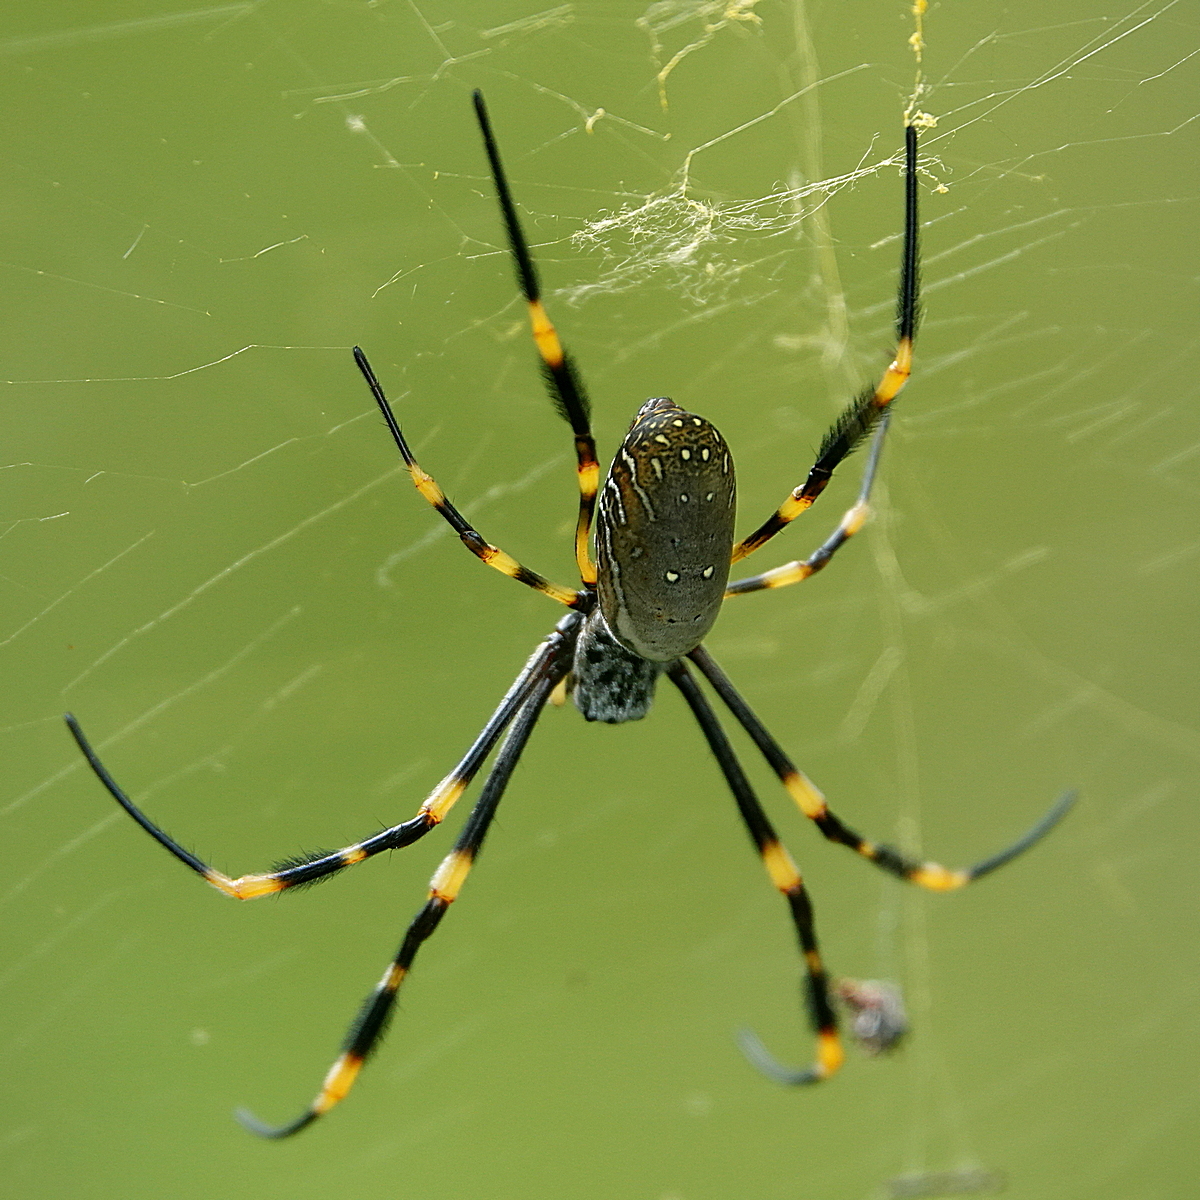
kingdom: Animalia
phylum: Arthropoda
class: Arachnida
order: Araneae
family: Araneidae
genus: Trichonephila
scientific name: Trichonephila plumipes
